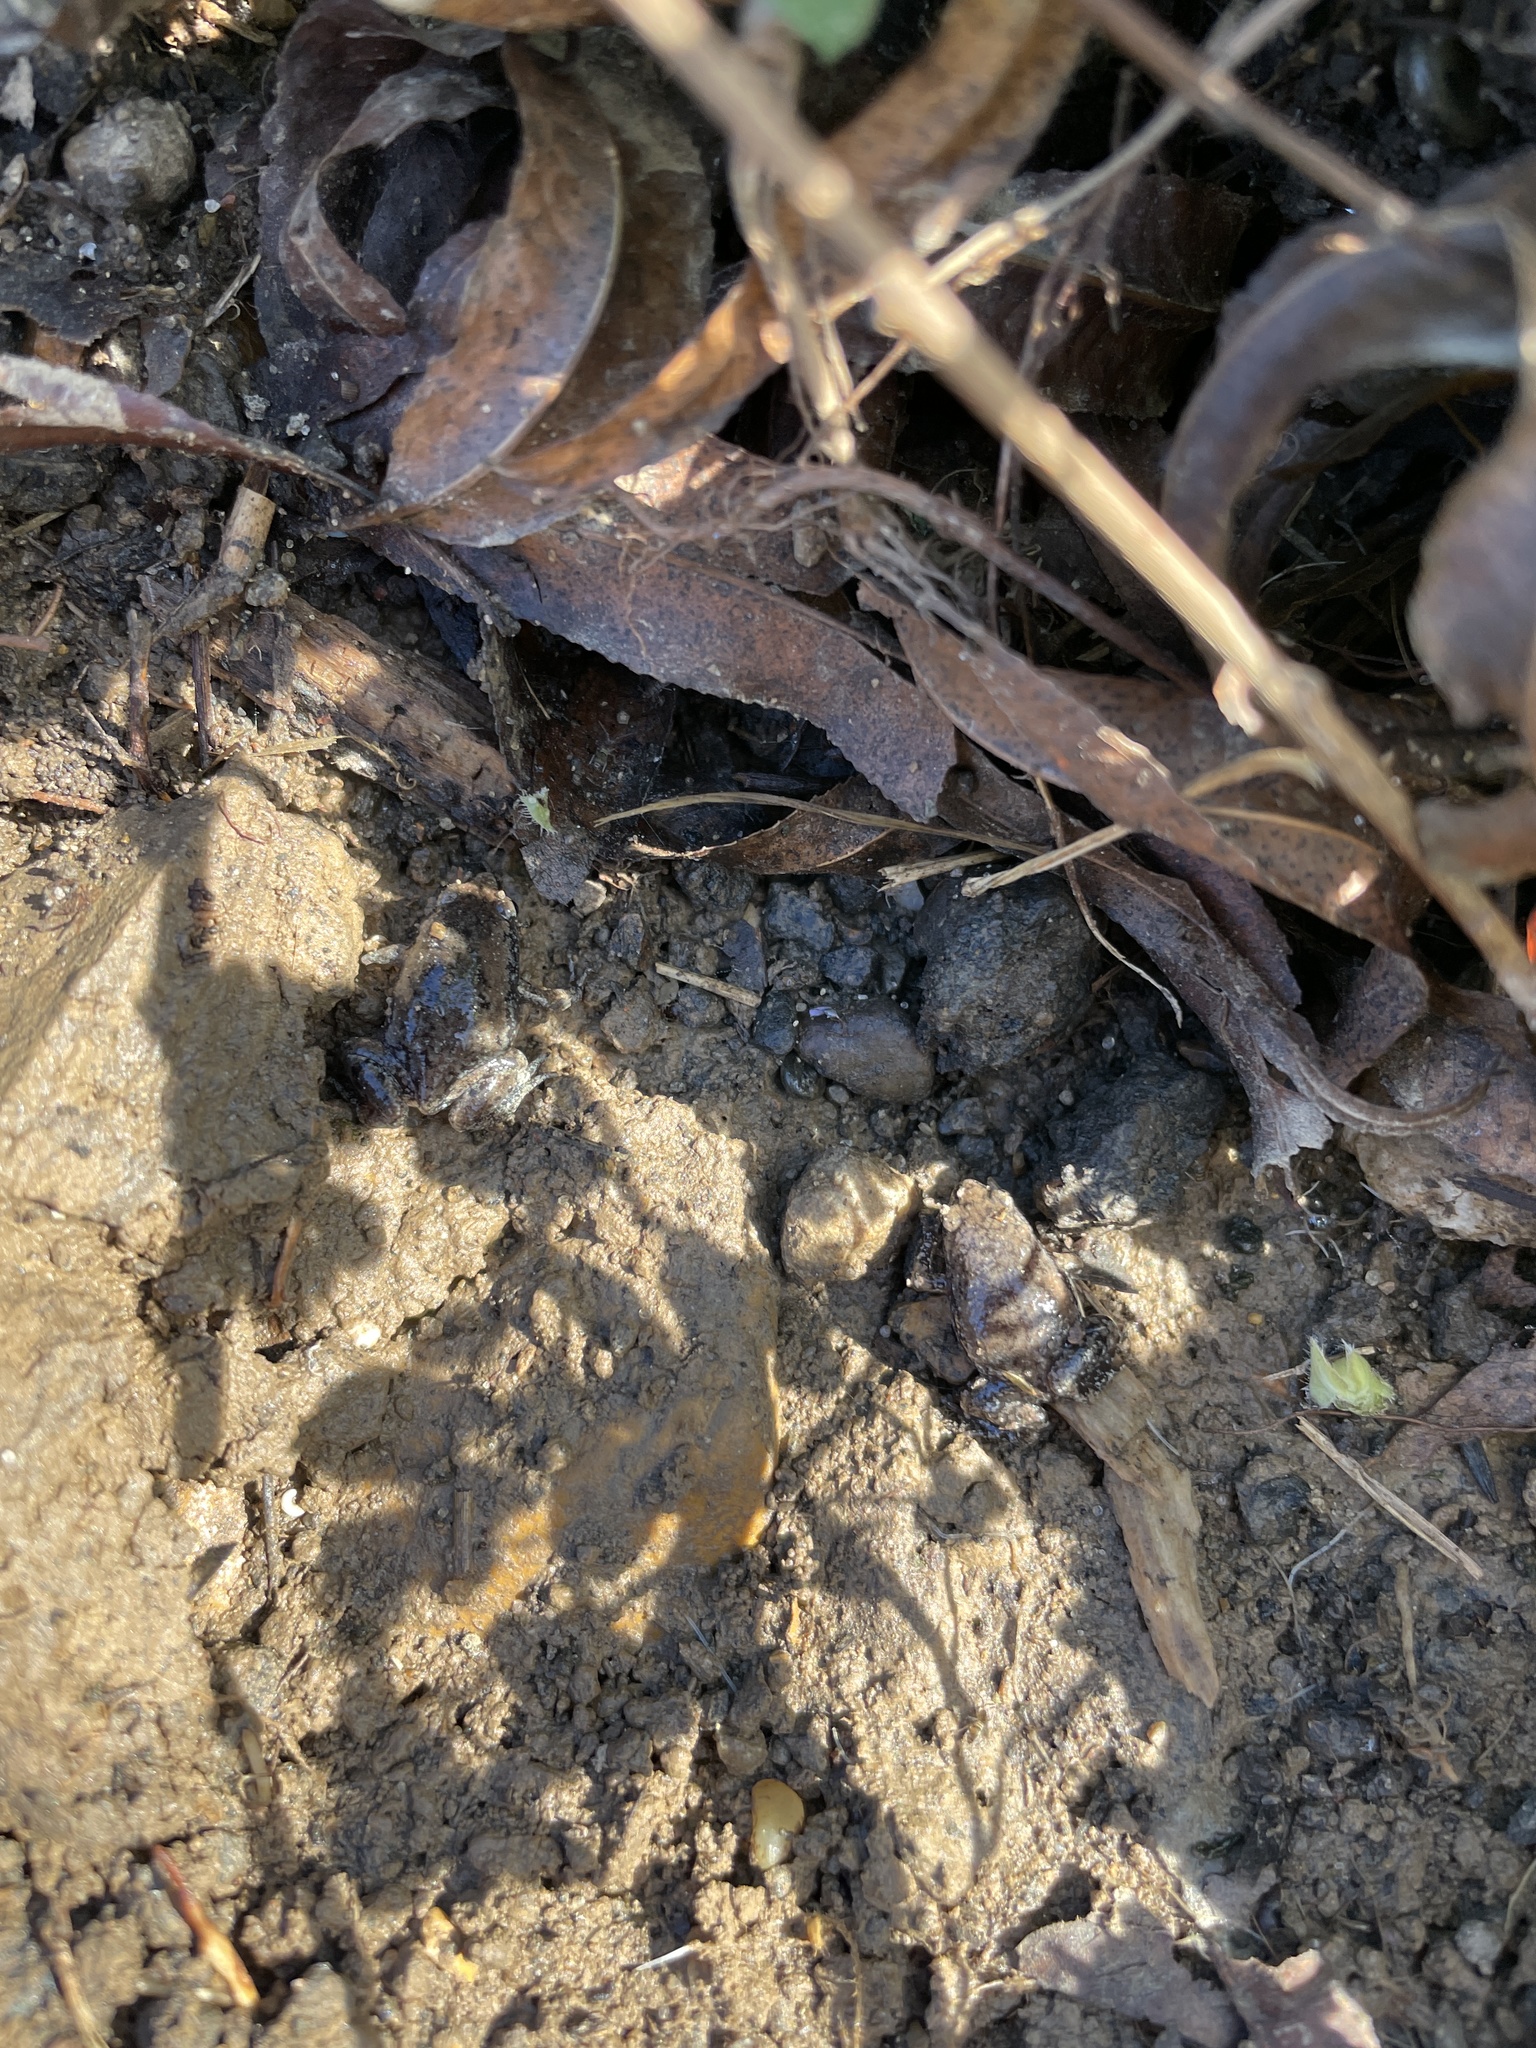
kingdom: Animalia
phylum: Chordata
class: Amphibia
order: Anura
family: Microhylidae
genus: Gastrophryne
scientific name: Gastrophryne carolinensis
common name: Eastern narrowmouth toad
